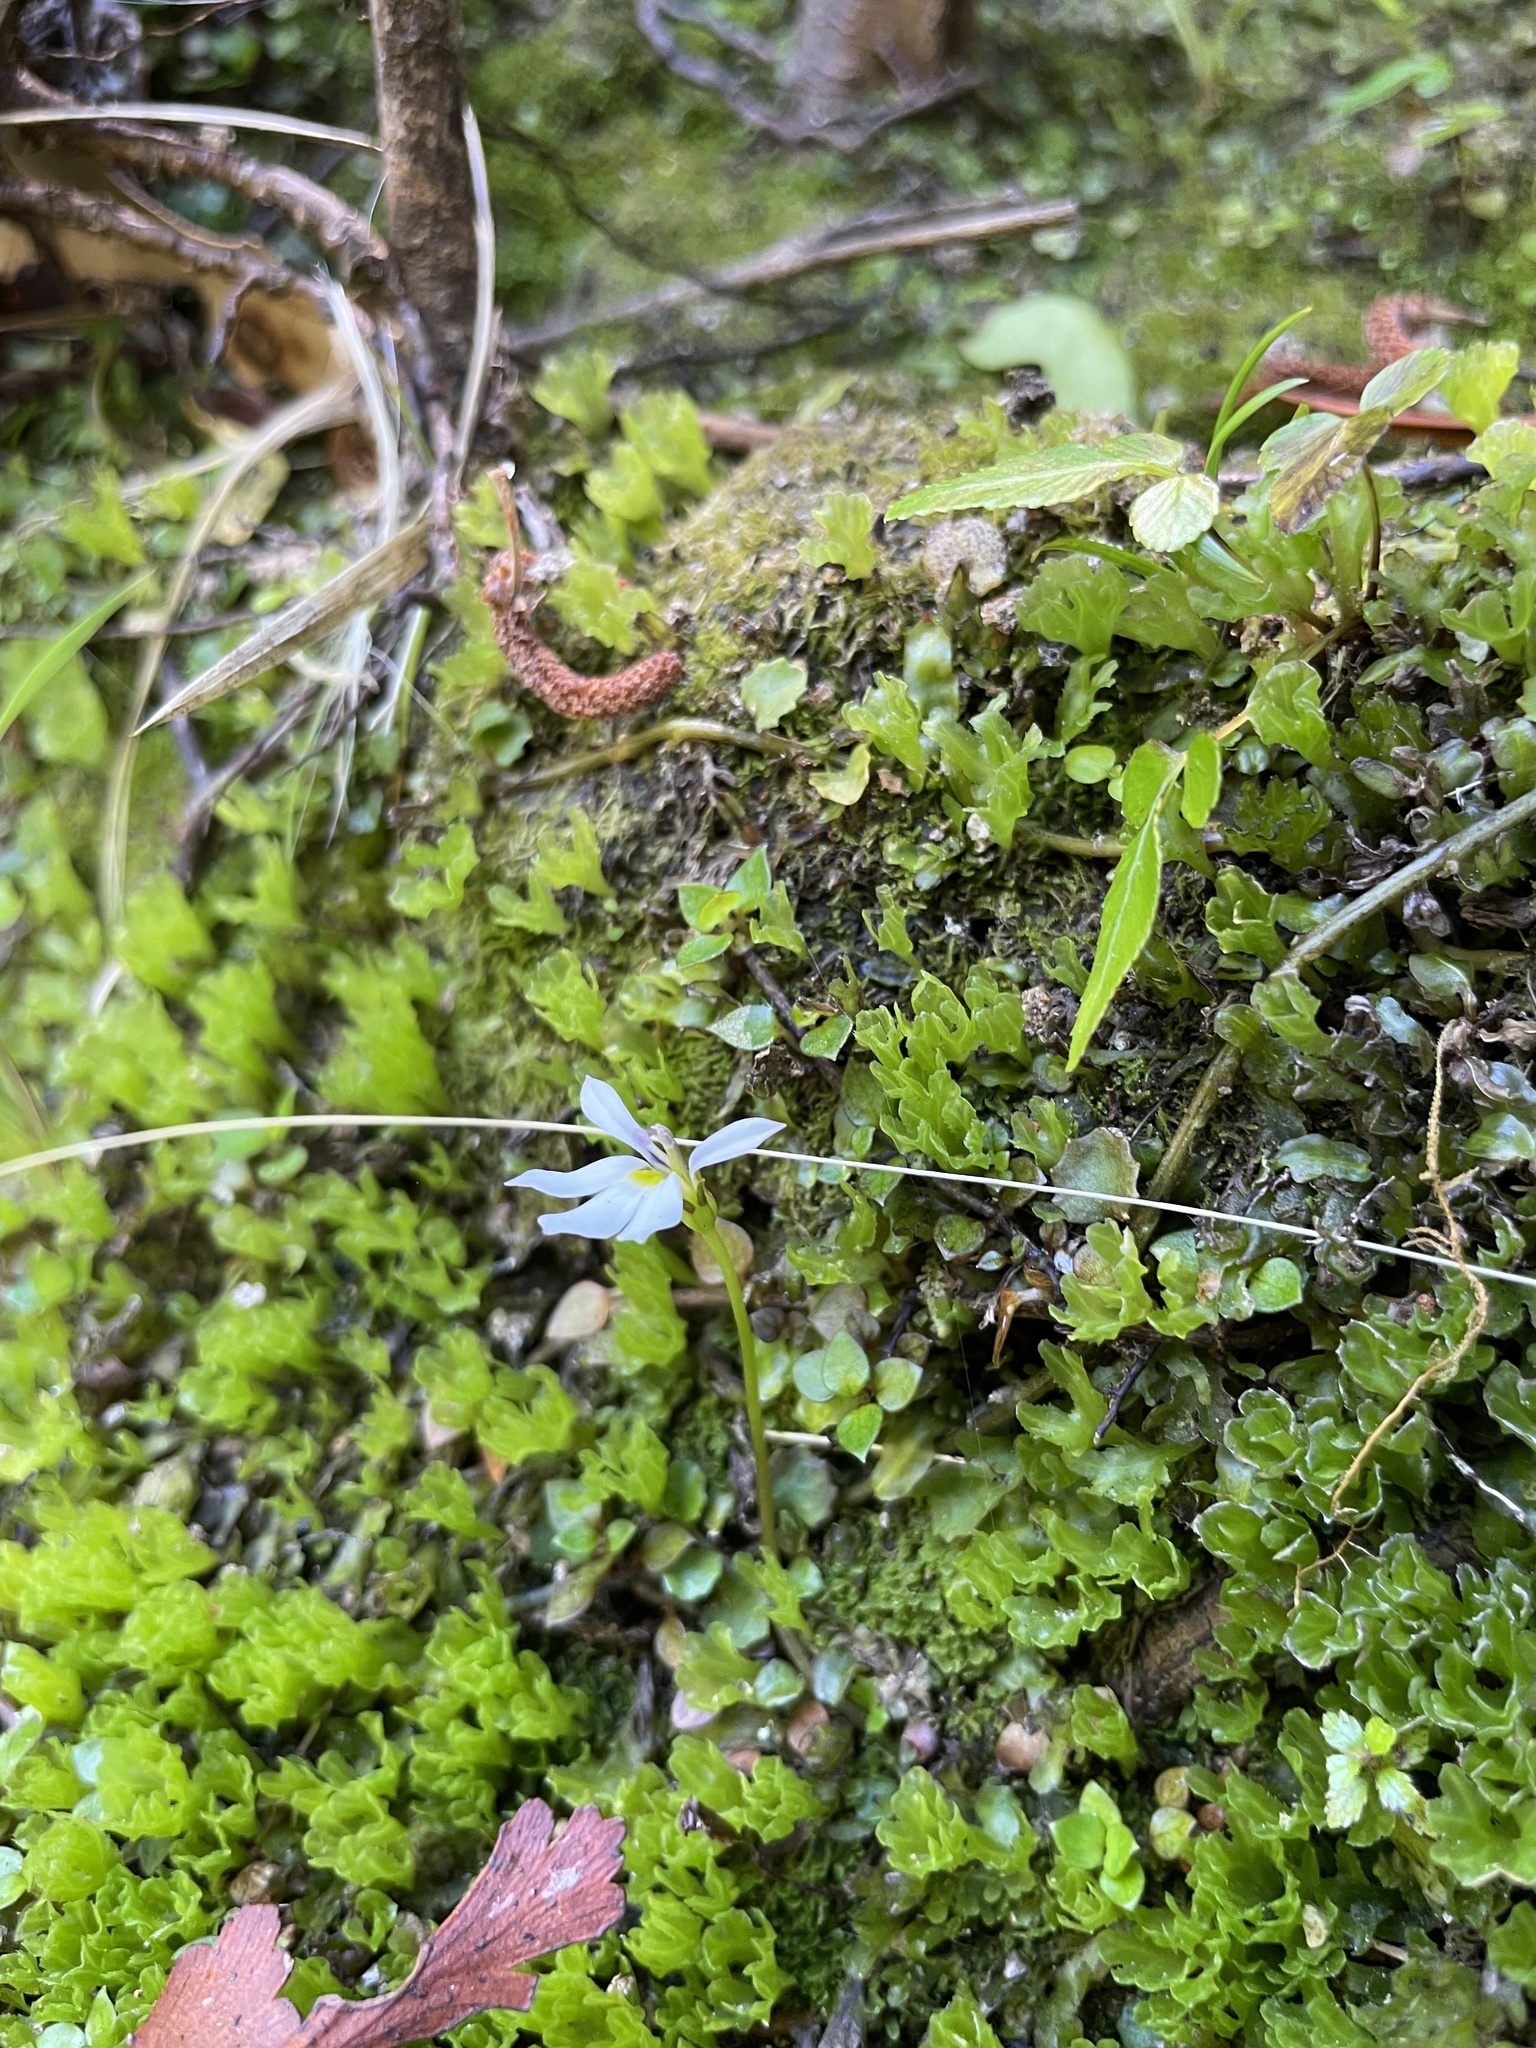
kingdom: Plantae
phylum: Tracheophyta
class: Magnoliopsida
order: Asterales
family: Campanulaceae
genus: Lobelia
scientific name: Lobelia angulata
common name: Lawn lobelia
